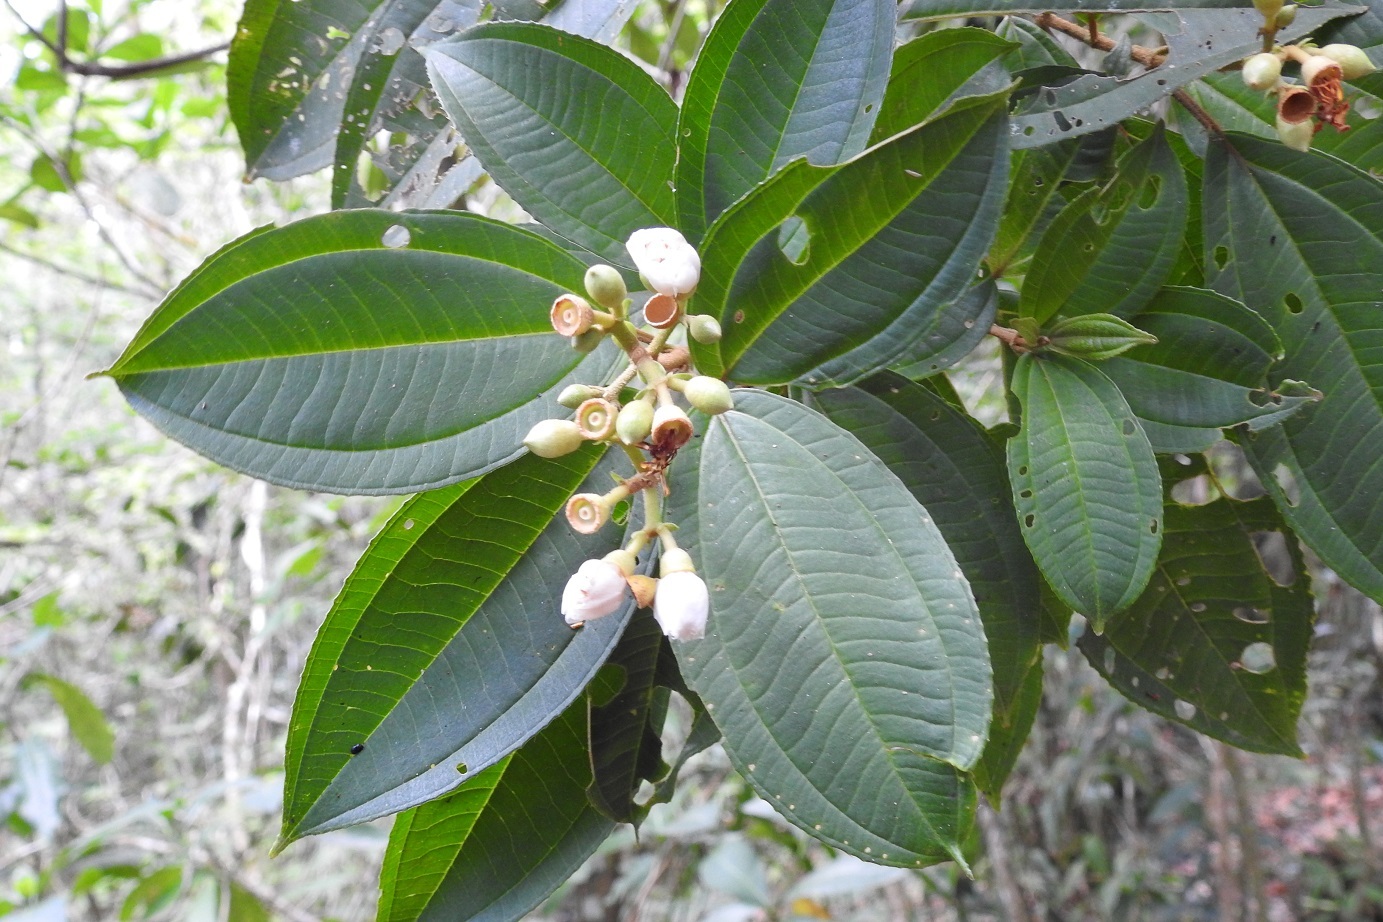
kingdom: Plantae
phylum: Tracheophyta
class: Magnoliopsida
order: Myrtales
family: Melastomataceae
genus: Miconia
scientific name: Miconia subhirsuta
